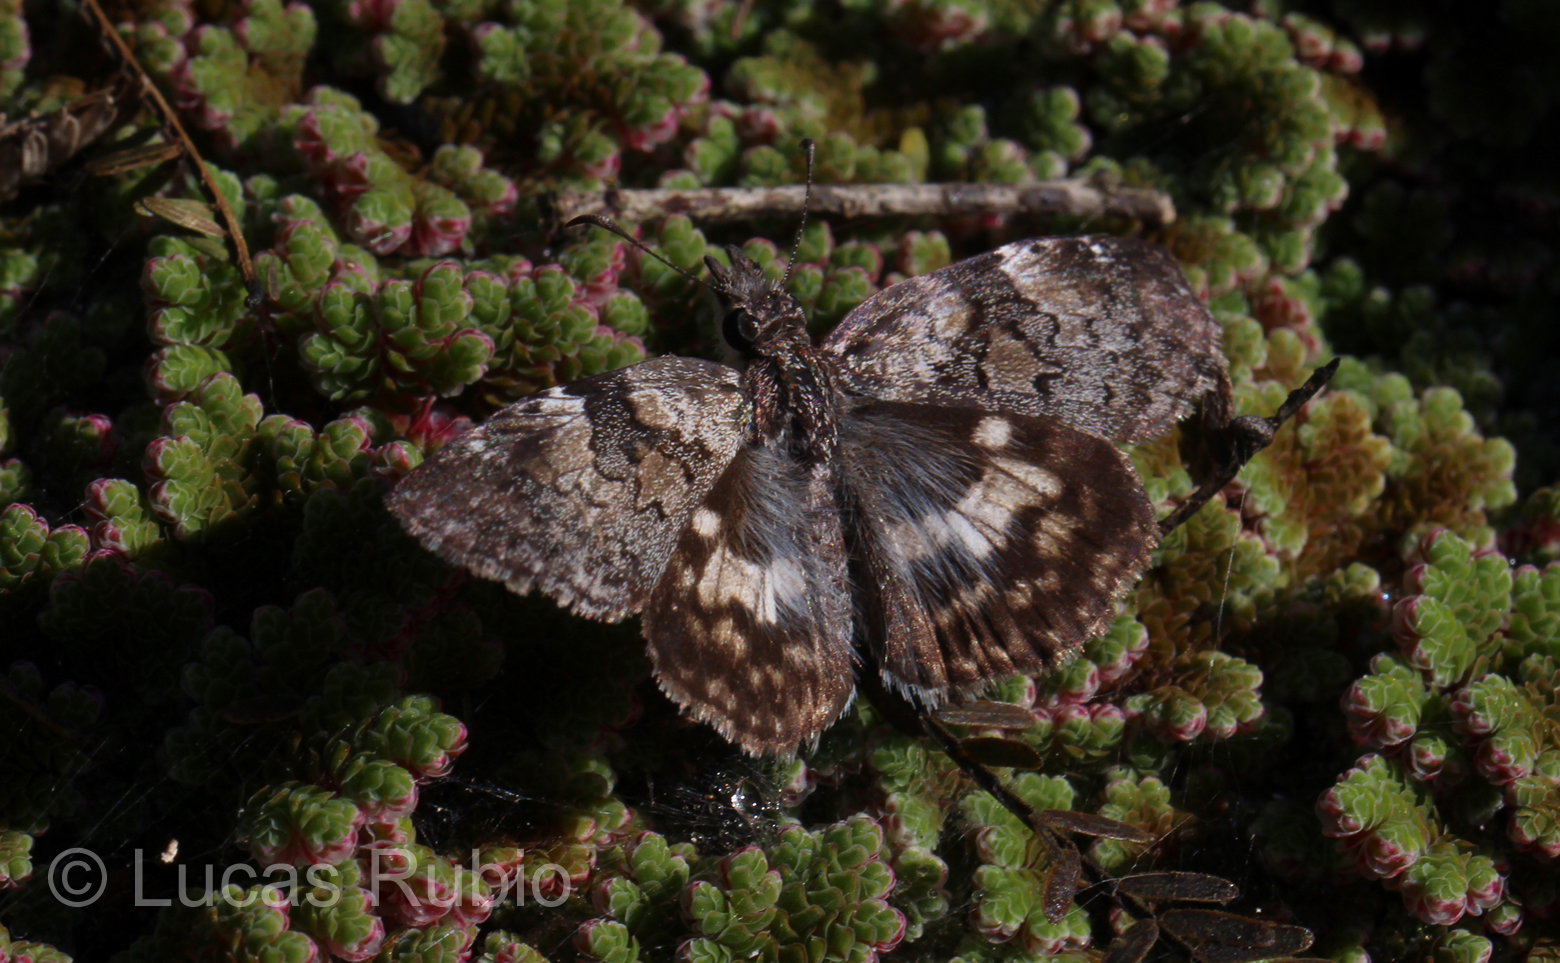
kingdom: Animalia
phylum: Arthropoda
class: Insecta
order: Lepidoptera
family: Hesperiidae
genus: Chiomara
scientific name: Chiomara asychis
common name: White-patterned skipper
